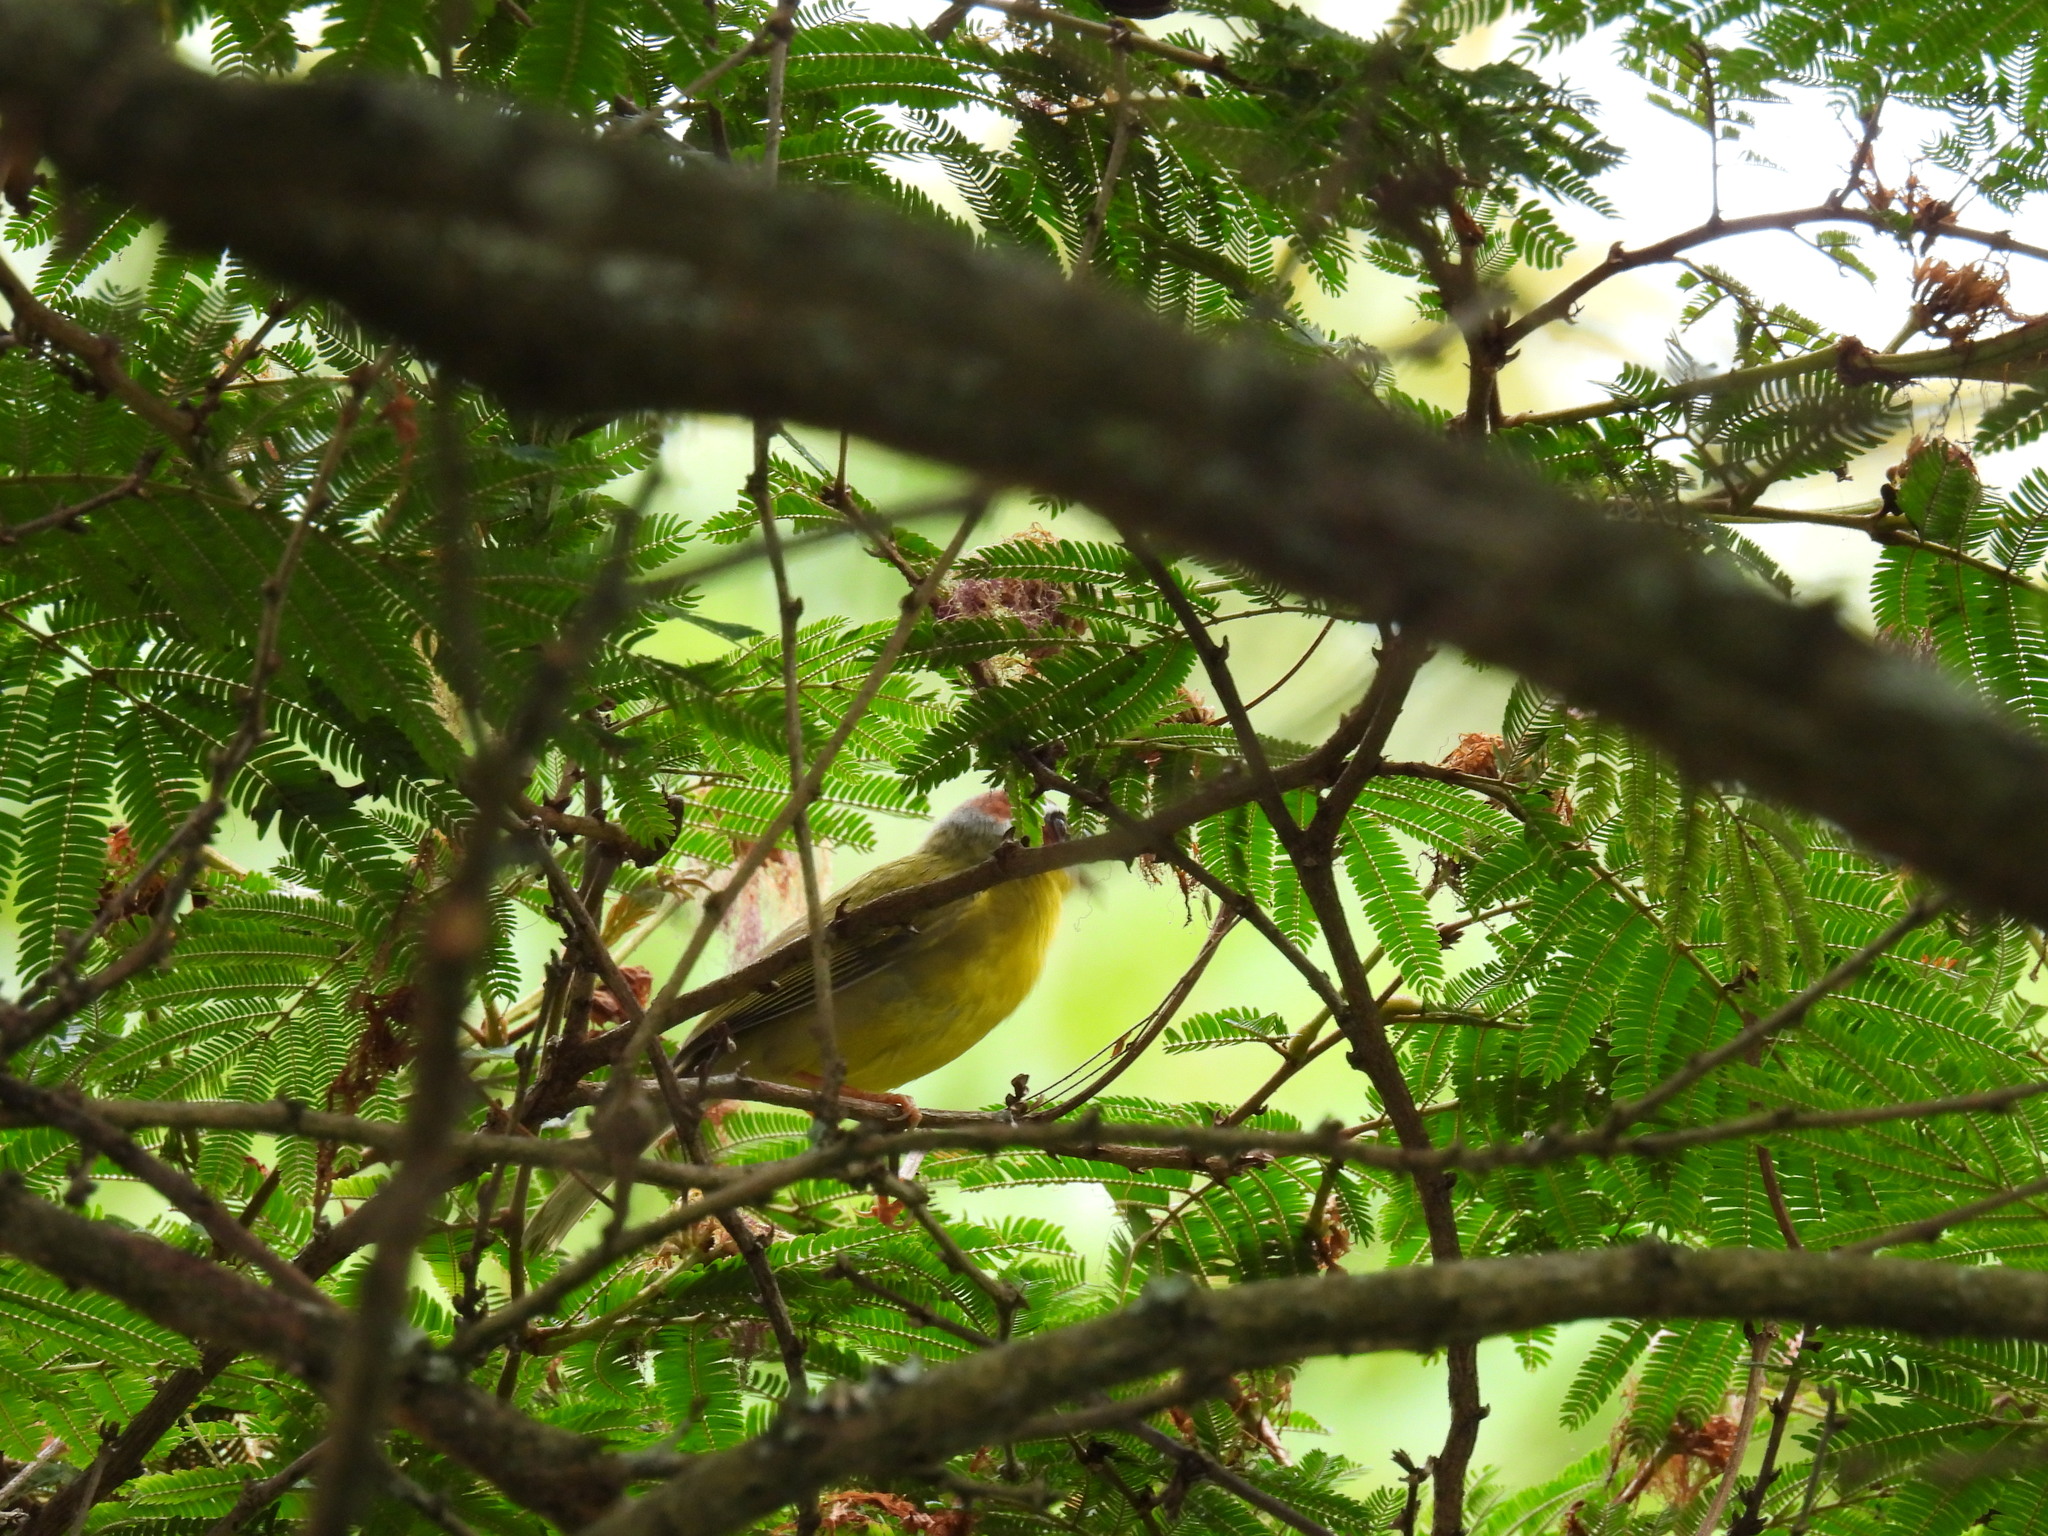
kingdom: Animalia
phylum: Chordata
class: Aves
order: Passeriformes
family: Parulidae
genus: Basileuterus
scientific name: Basileuterus rufifrons
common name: Rufous-capped warbler
